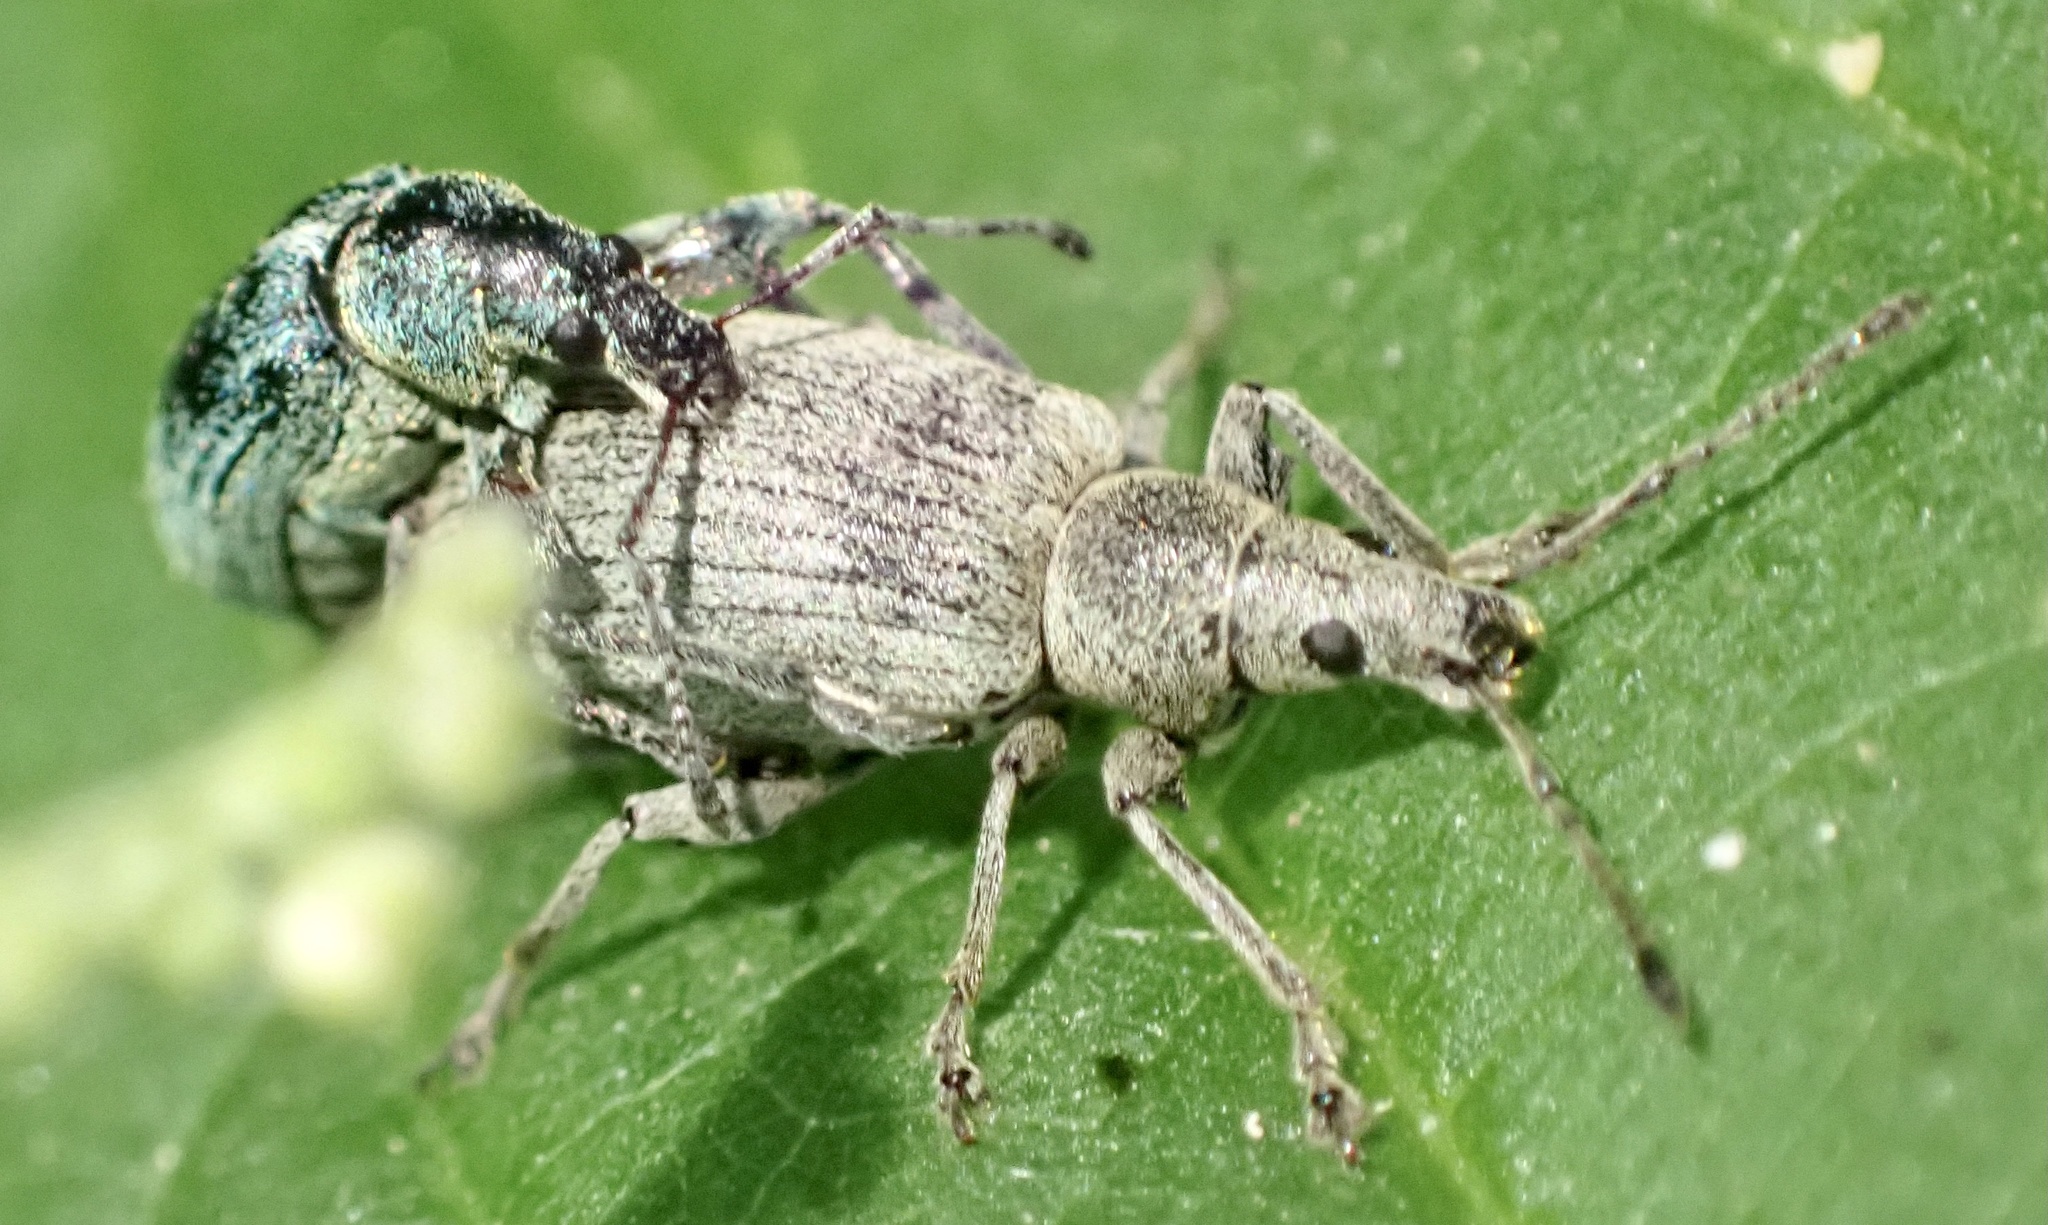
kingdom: Animalia
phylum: Arthropoda
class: Insecta
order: Coleoptera
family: Curculionidae
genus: Phyllobius
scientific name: Phyllobius pomaceus
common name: Green nettle weevil
